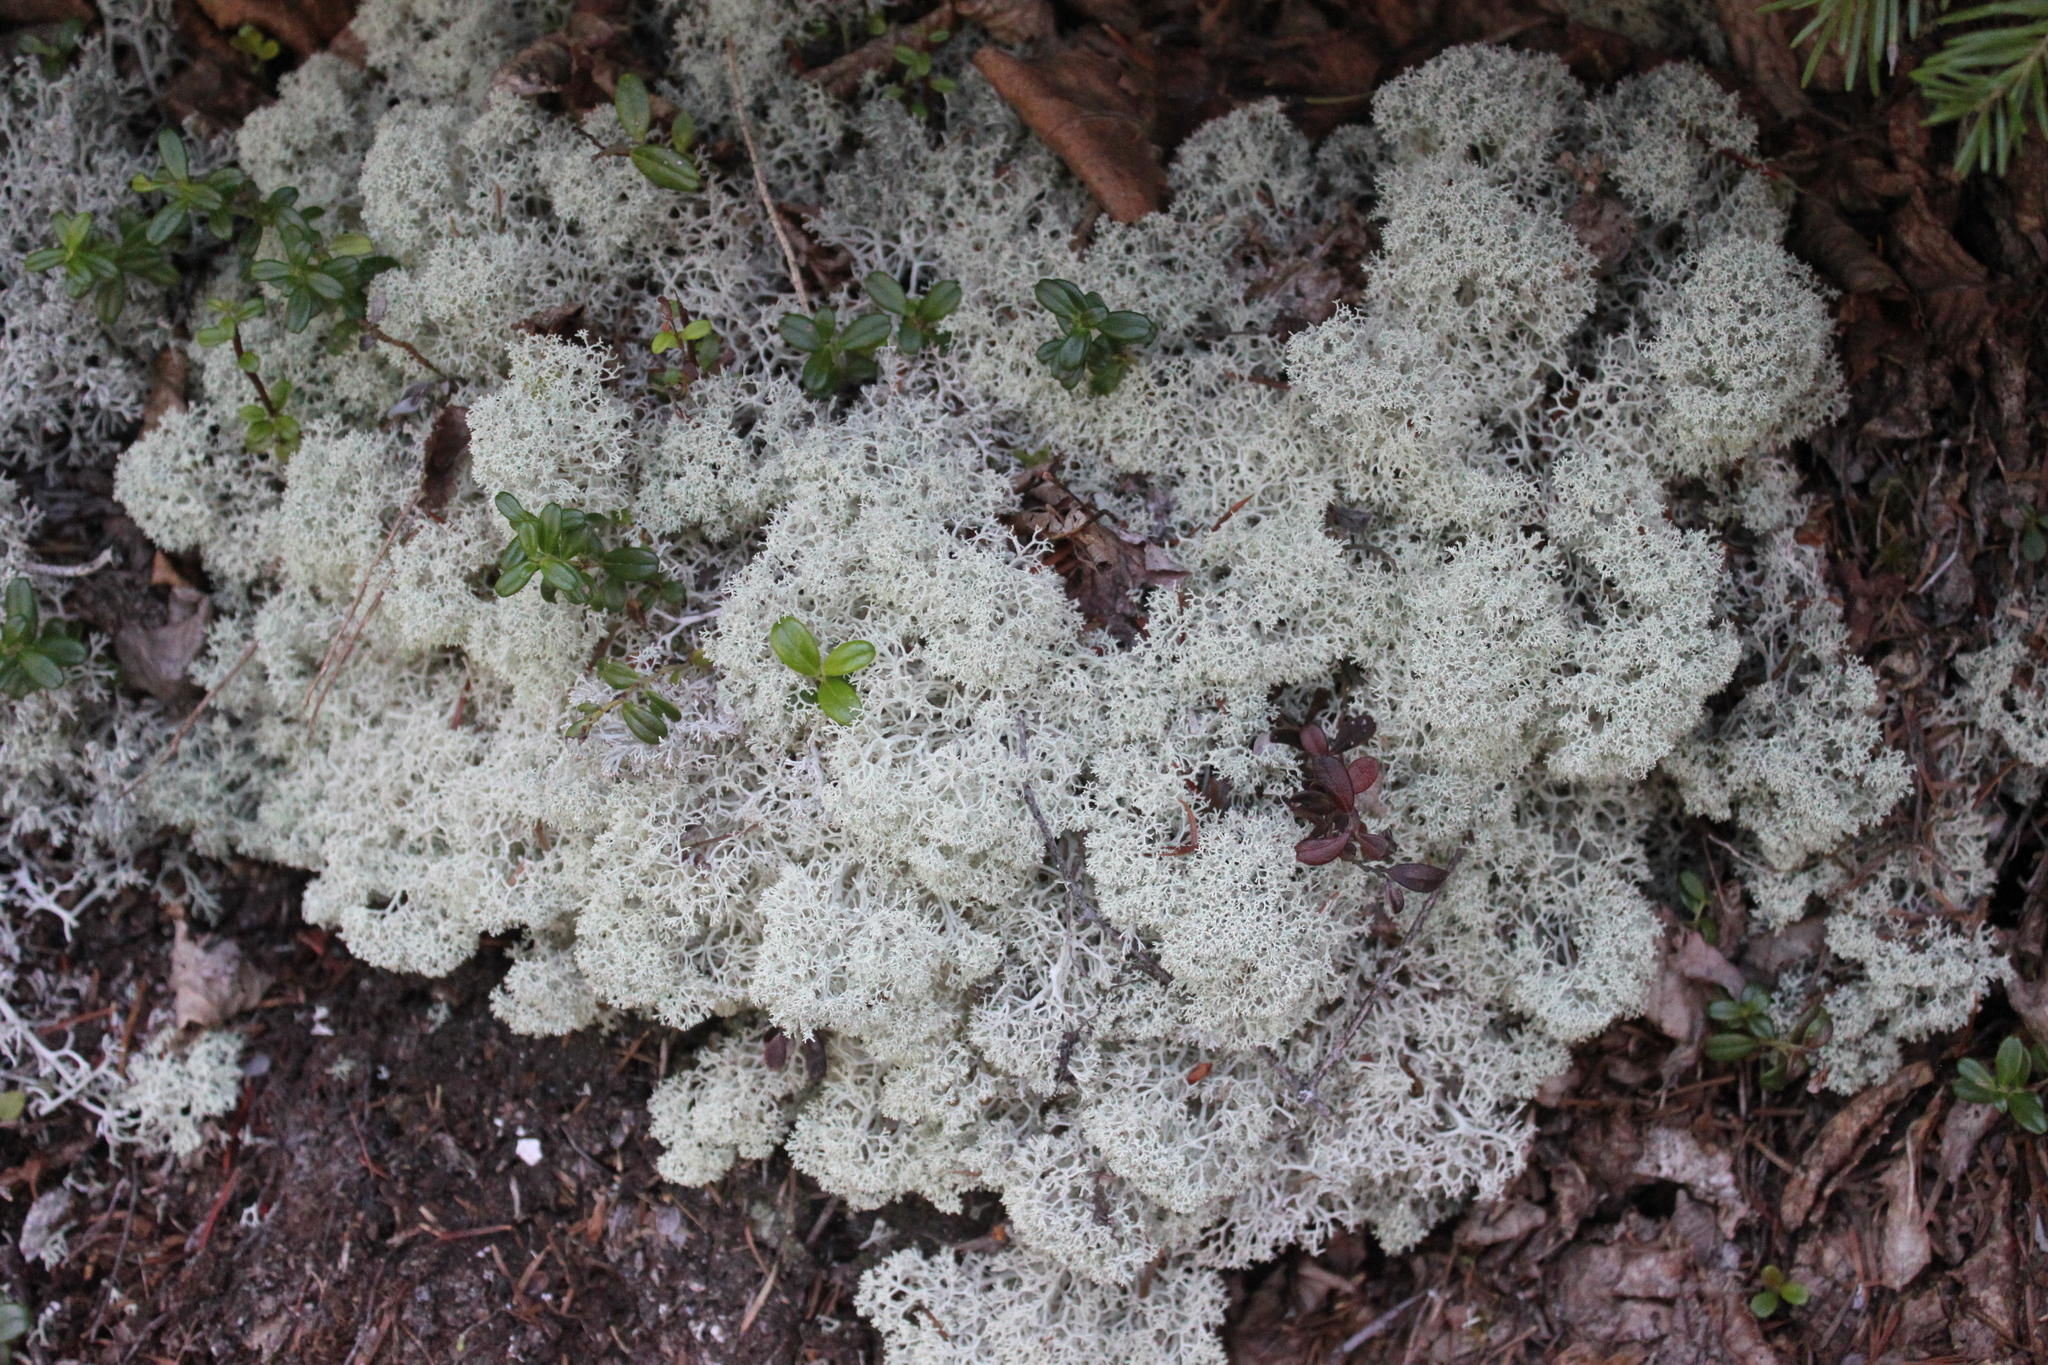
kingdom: Fungi
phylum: Ascomycota
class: Lecanoromycetes
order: Lecanorales
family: Cladoniaceae
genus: Cladonia
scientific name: Cladonia stellaris
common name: Star-tipped reindeer lichen
